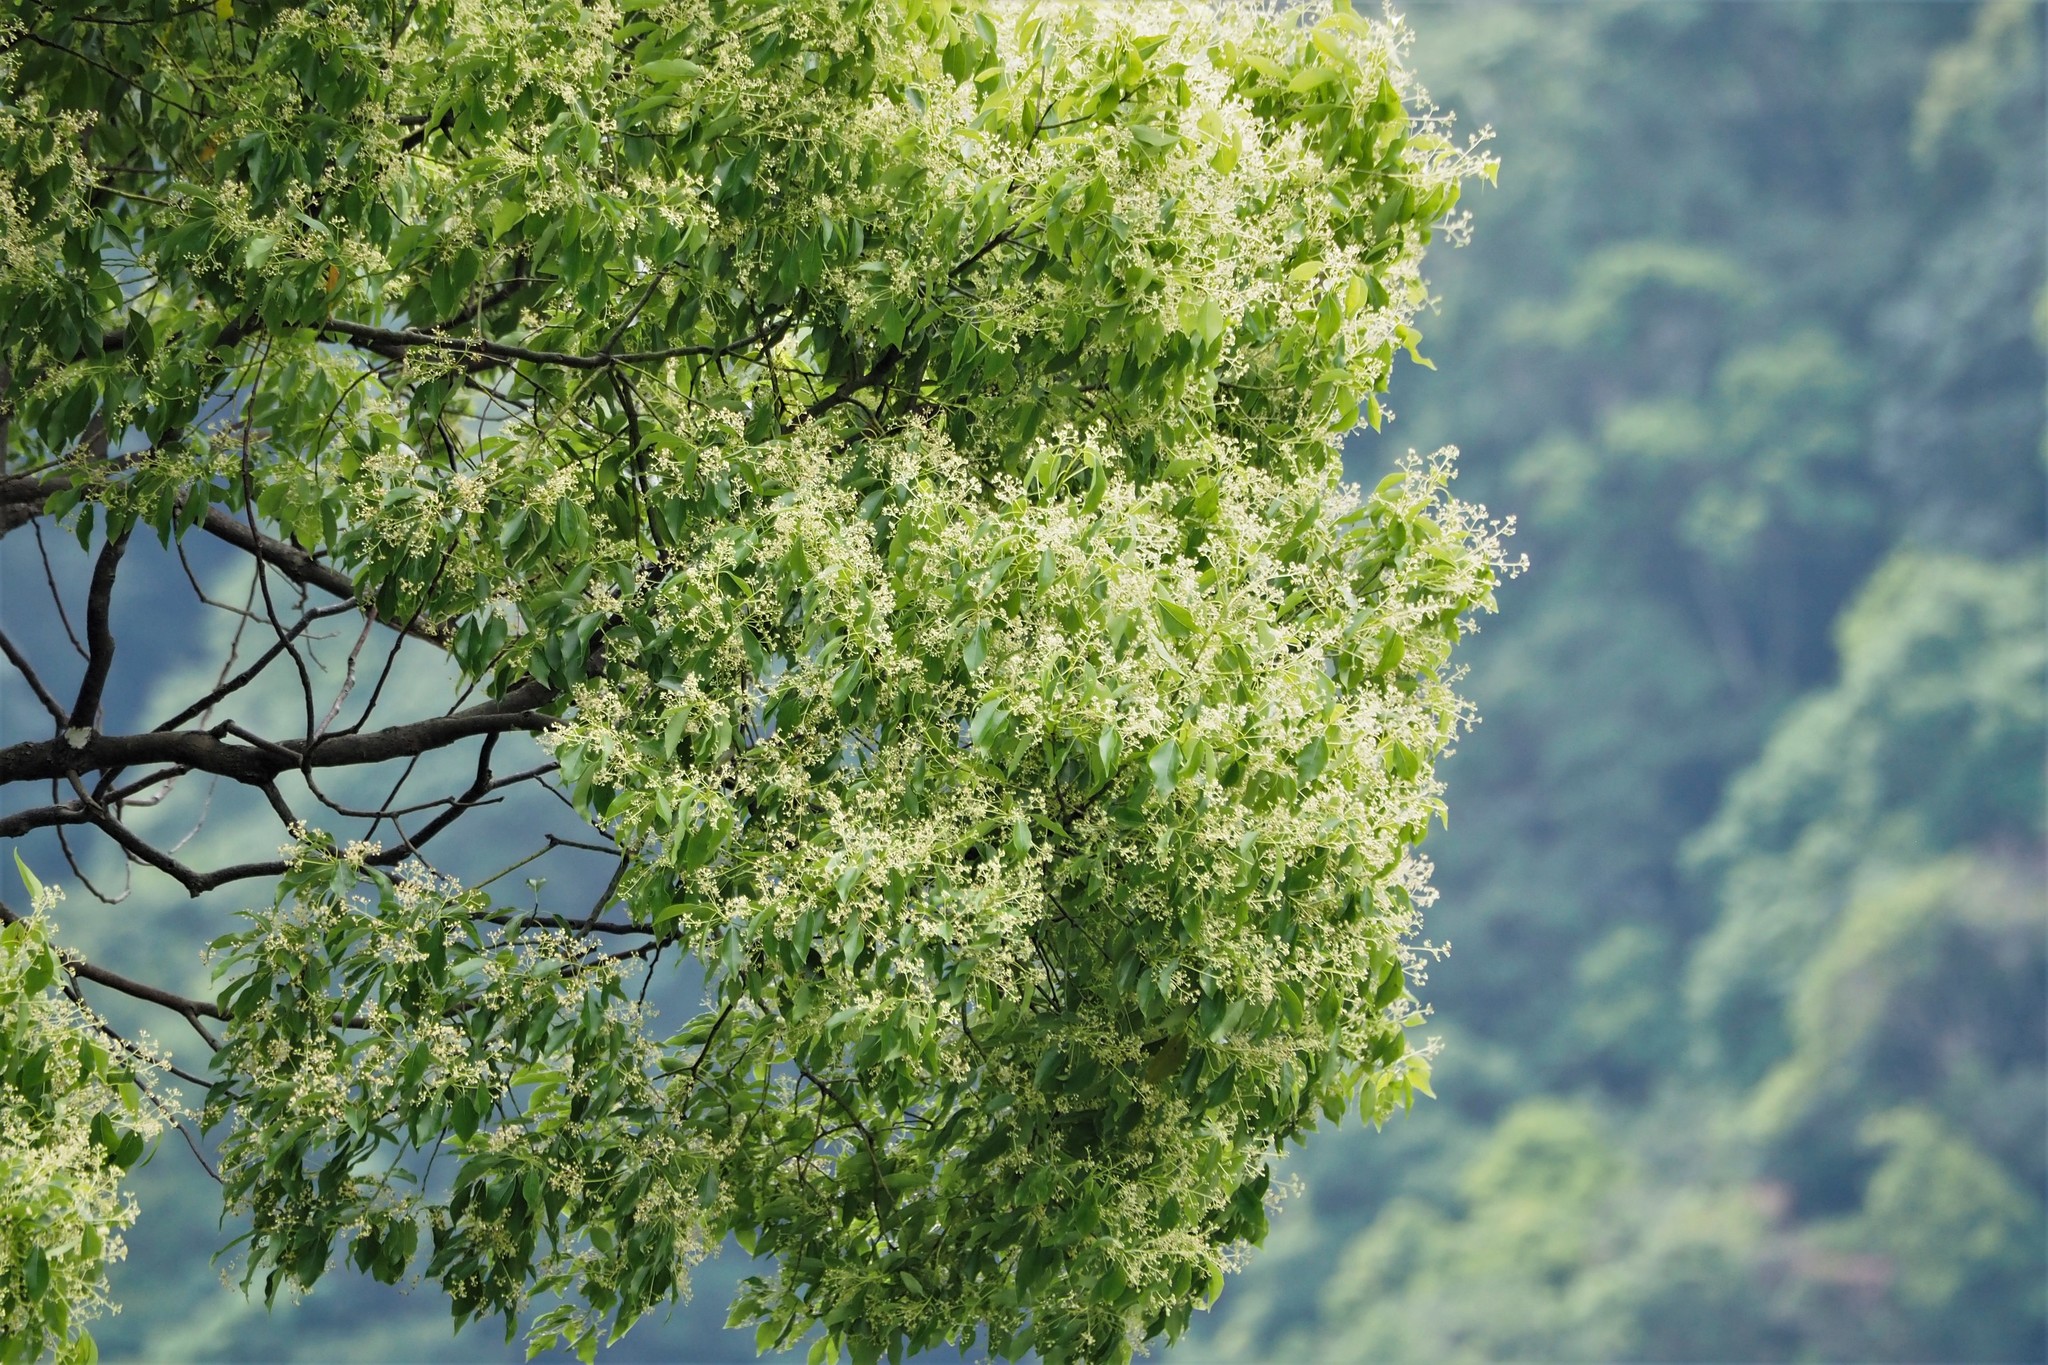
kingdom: Plantae
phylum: Tracheophyta
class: Magnoliopsida
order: Laurales
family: Lauraceae
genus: Cinnamomum
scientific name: Cinnamomum camphora
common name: Camphortree
